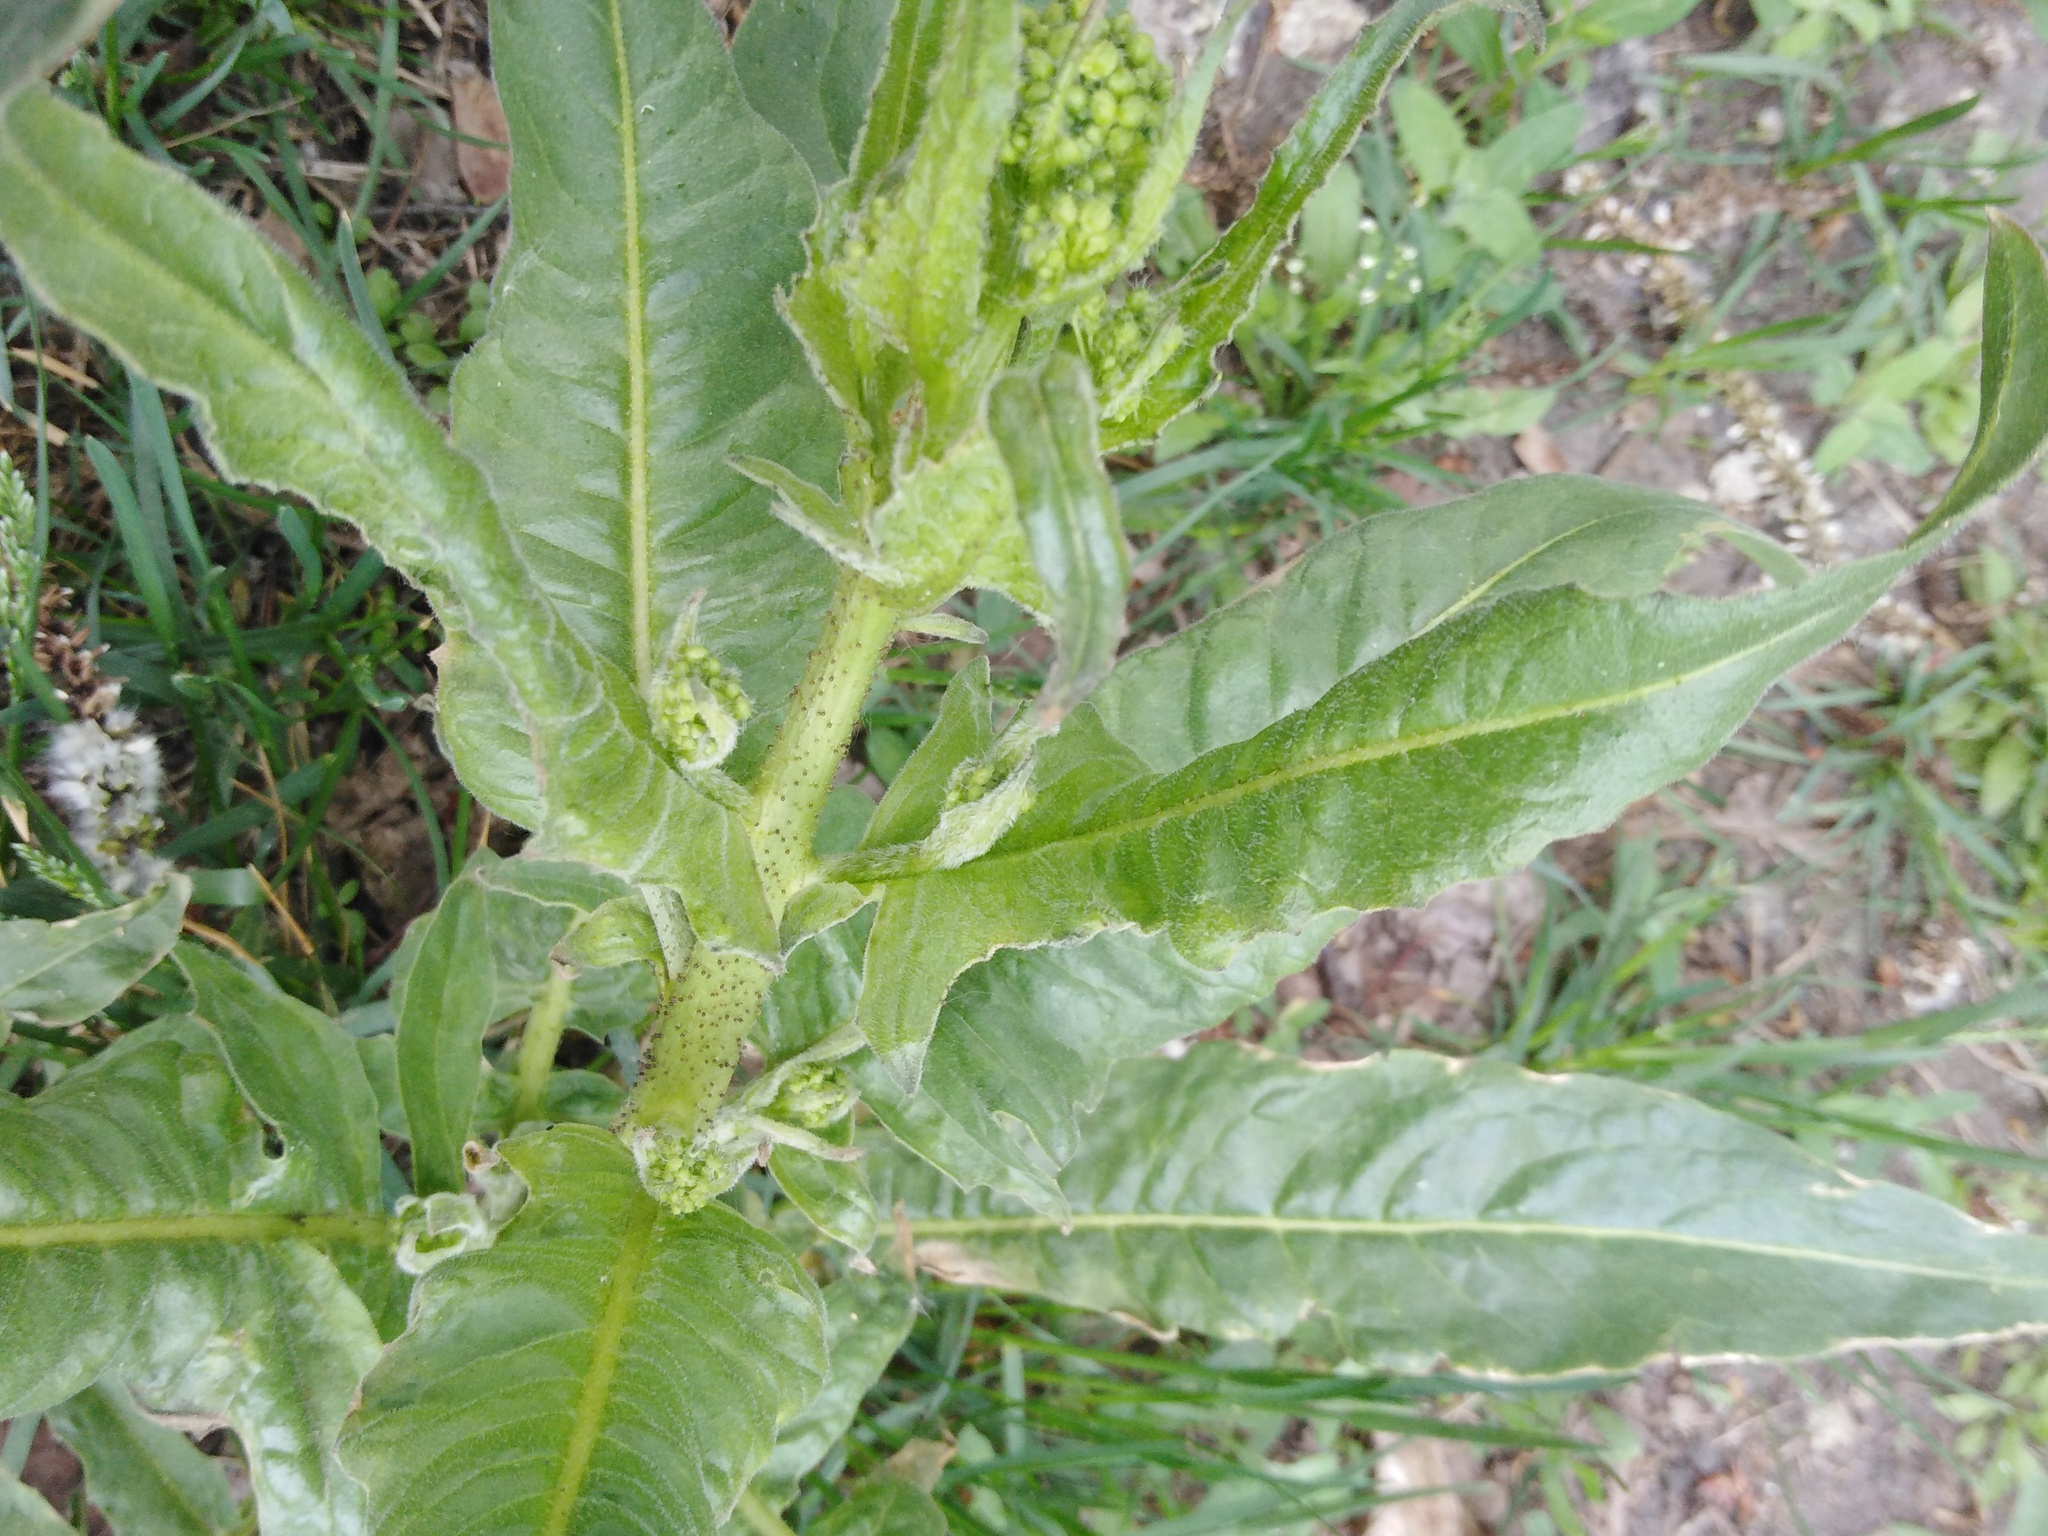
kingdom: Plantae
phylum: Tracheophyta
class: Magnoliopsida
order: Brassicales
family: Brassicaceae
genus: Bunias
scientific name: Bunias orientalis
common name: Warty-cabbage
